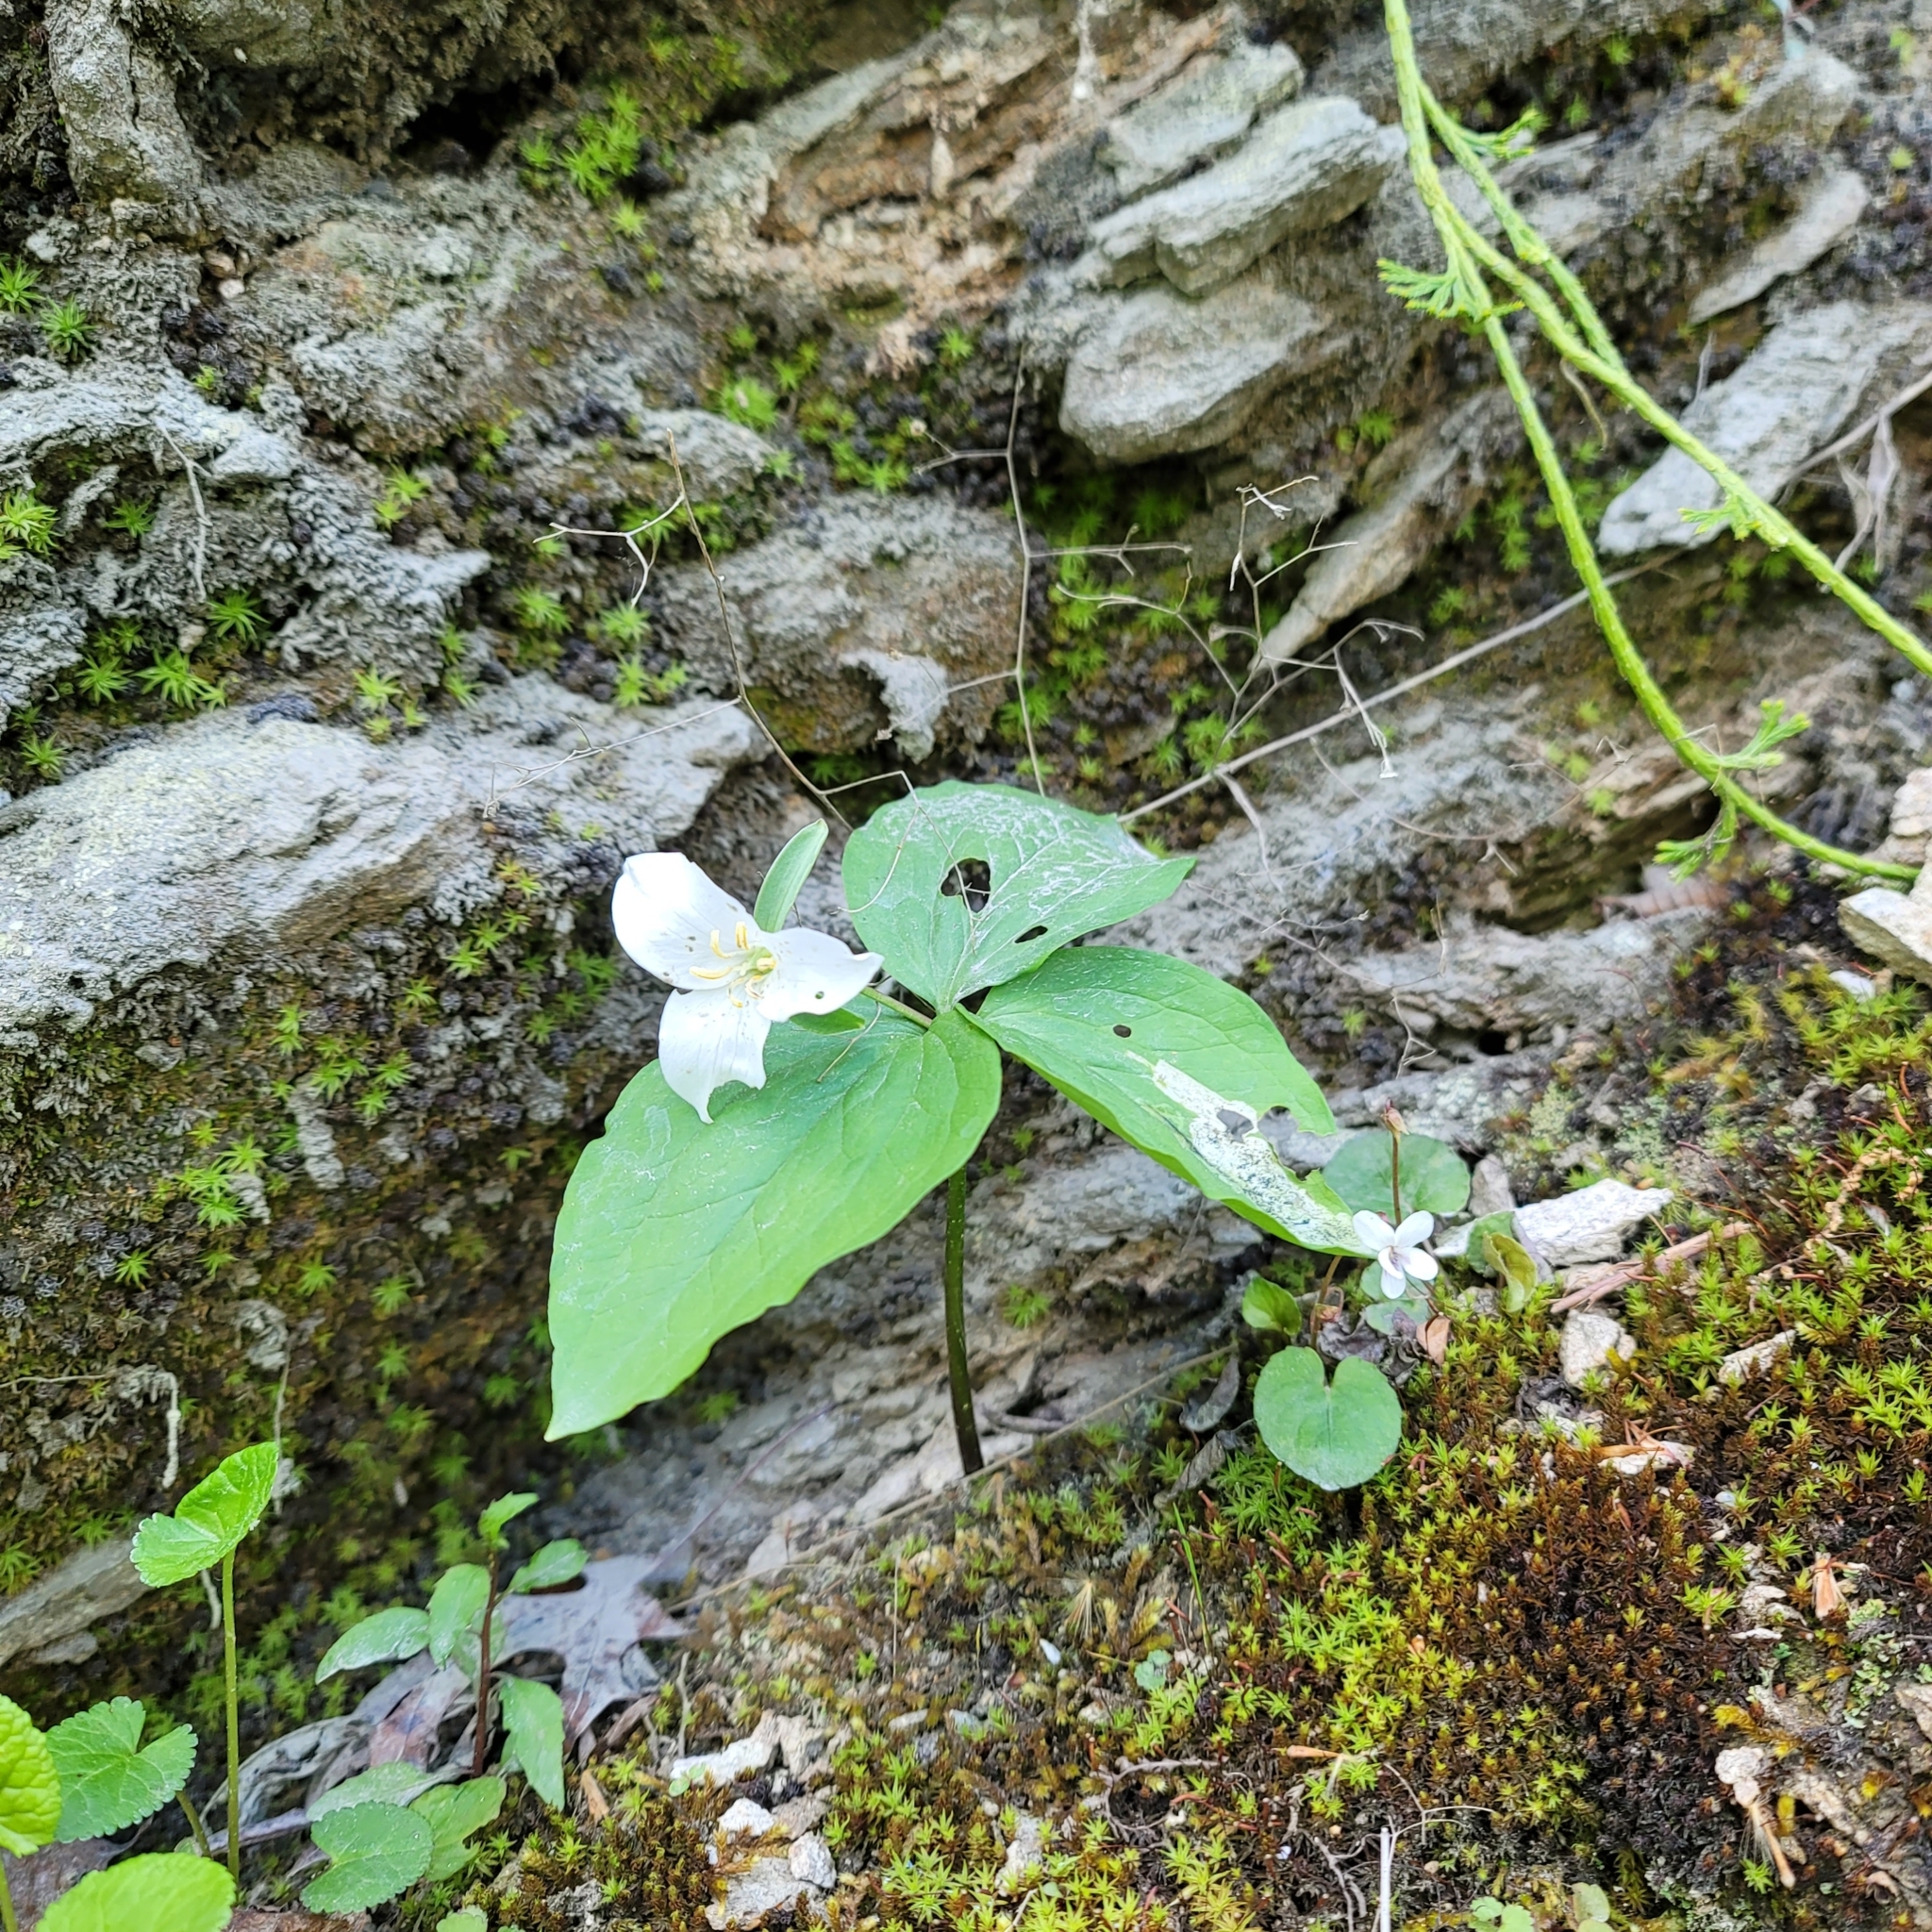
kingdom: Plantae
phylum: Tracheophyta
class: Liliopsida
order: Liliales
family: Melanthiaceae
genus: Trillium
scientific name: Trillium catesbaei
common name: Bashful trillium
